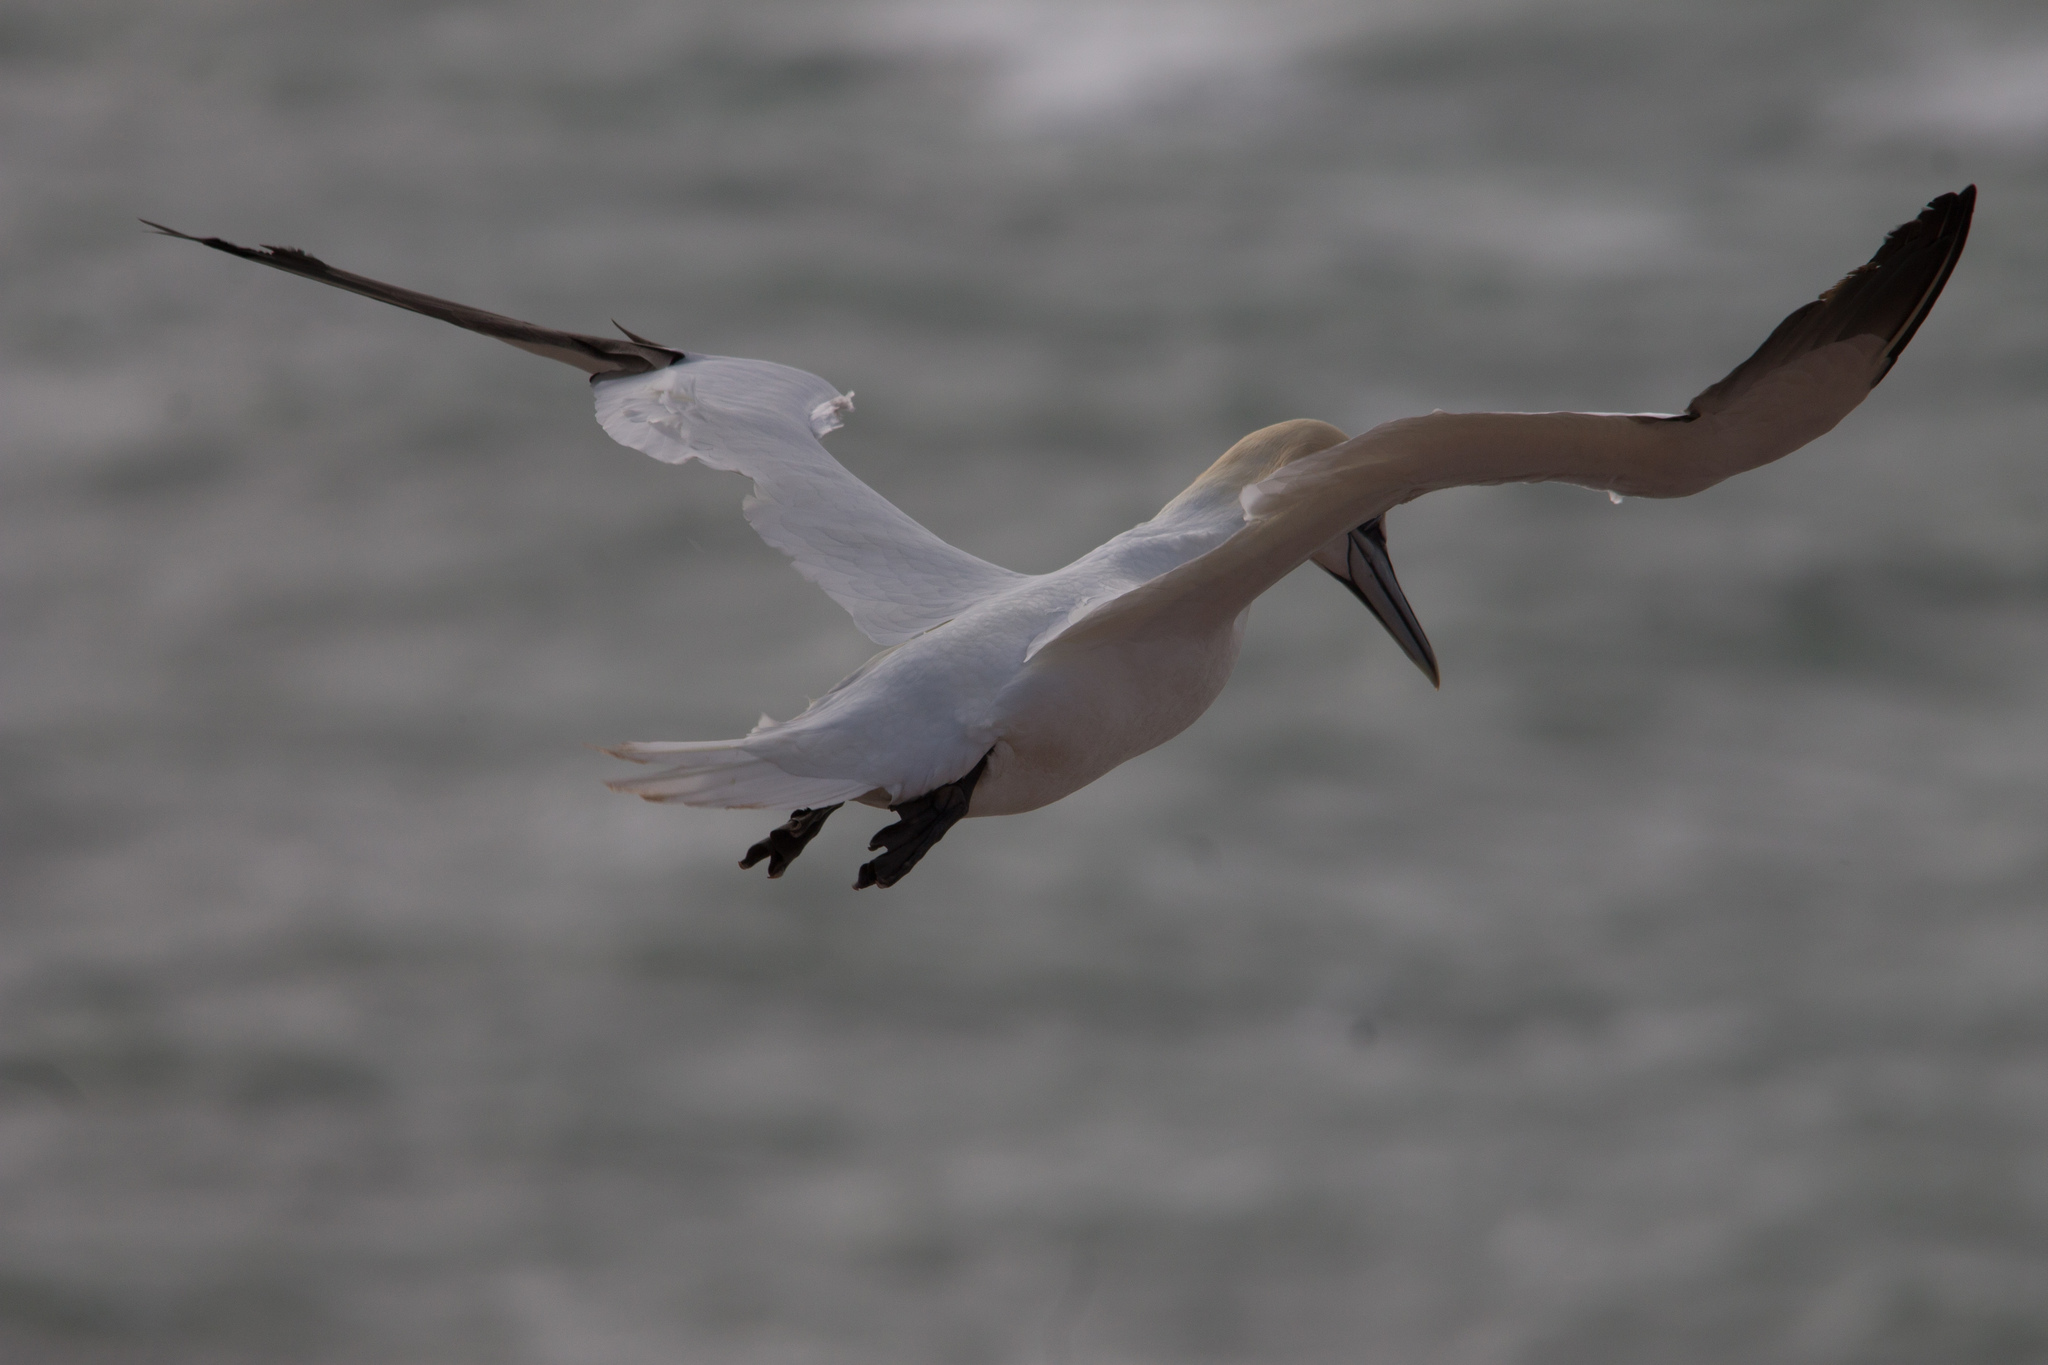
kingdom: Animalia
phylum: Chordata
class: Aves
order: Suliformes
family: Sulidae
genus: Morus
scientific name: Morus bassanus
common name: Northern gannet
